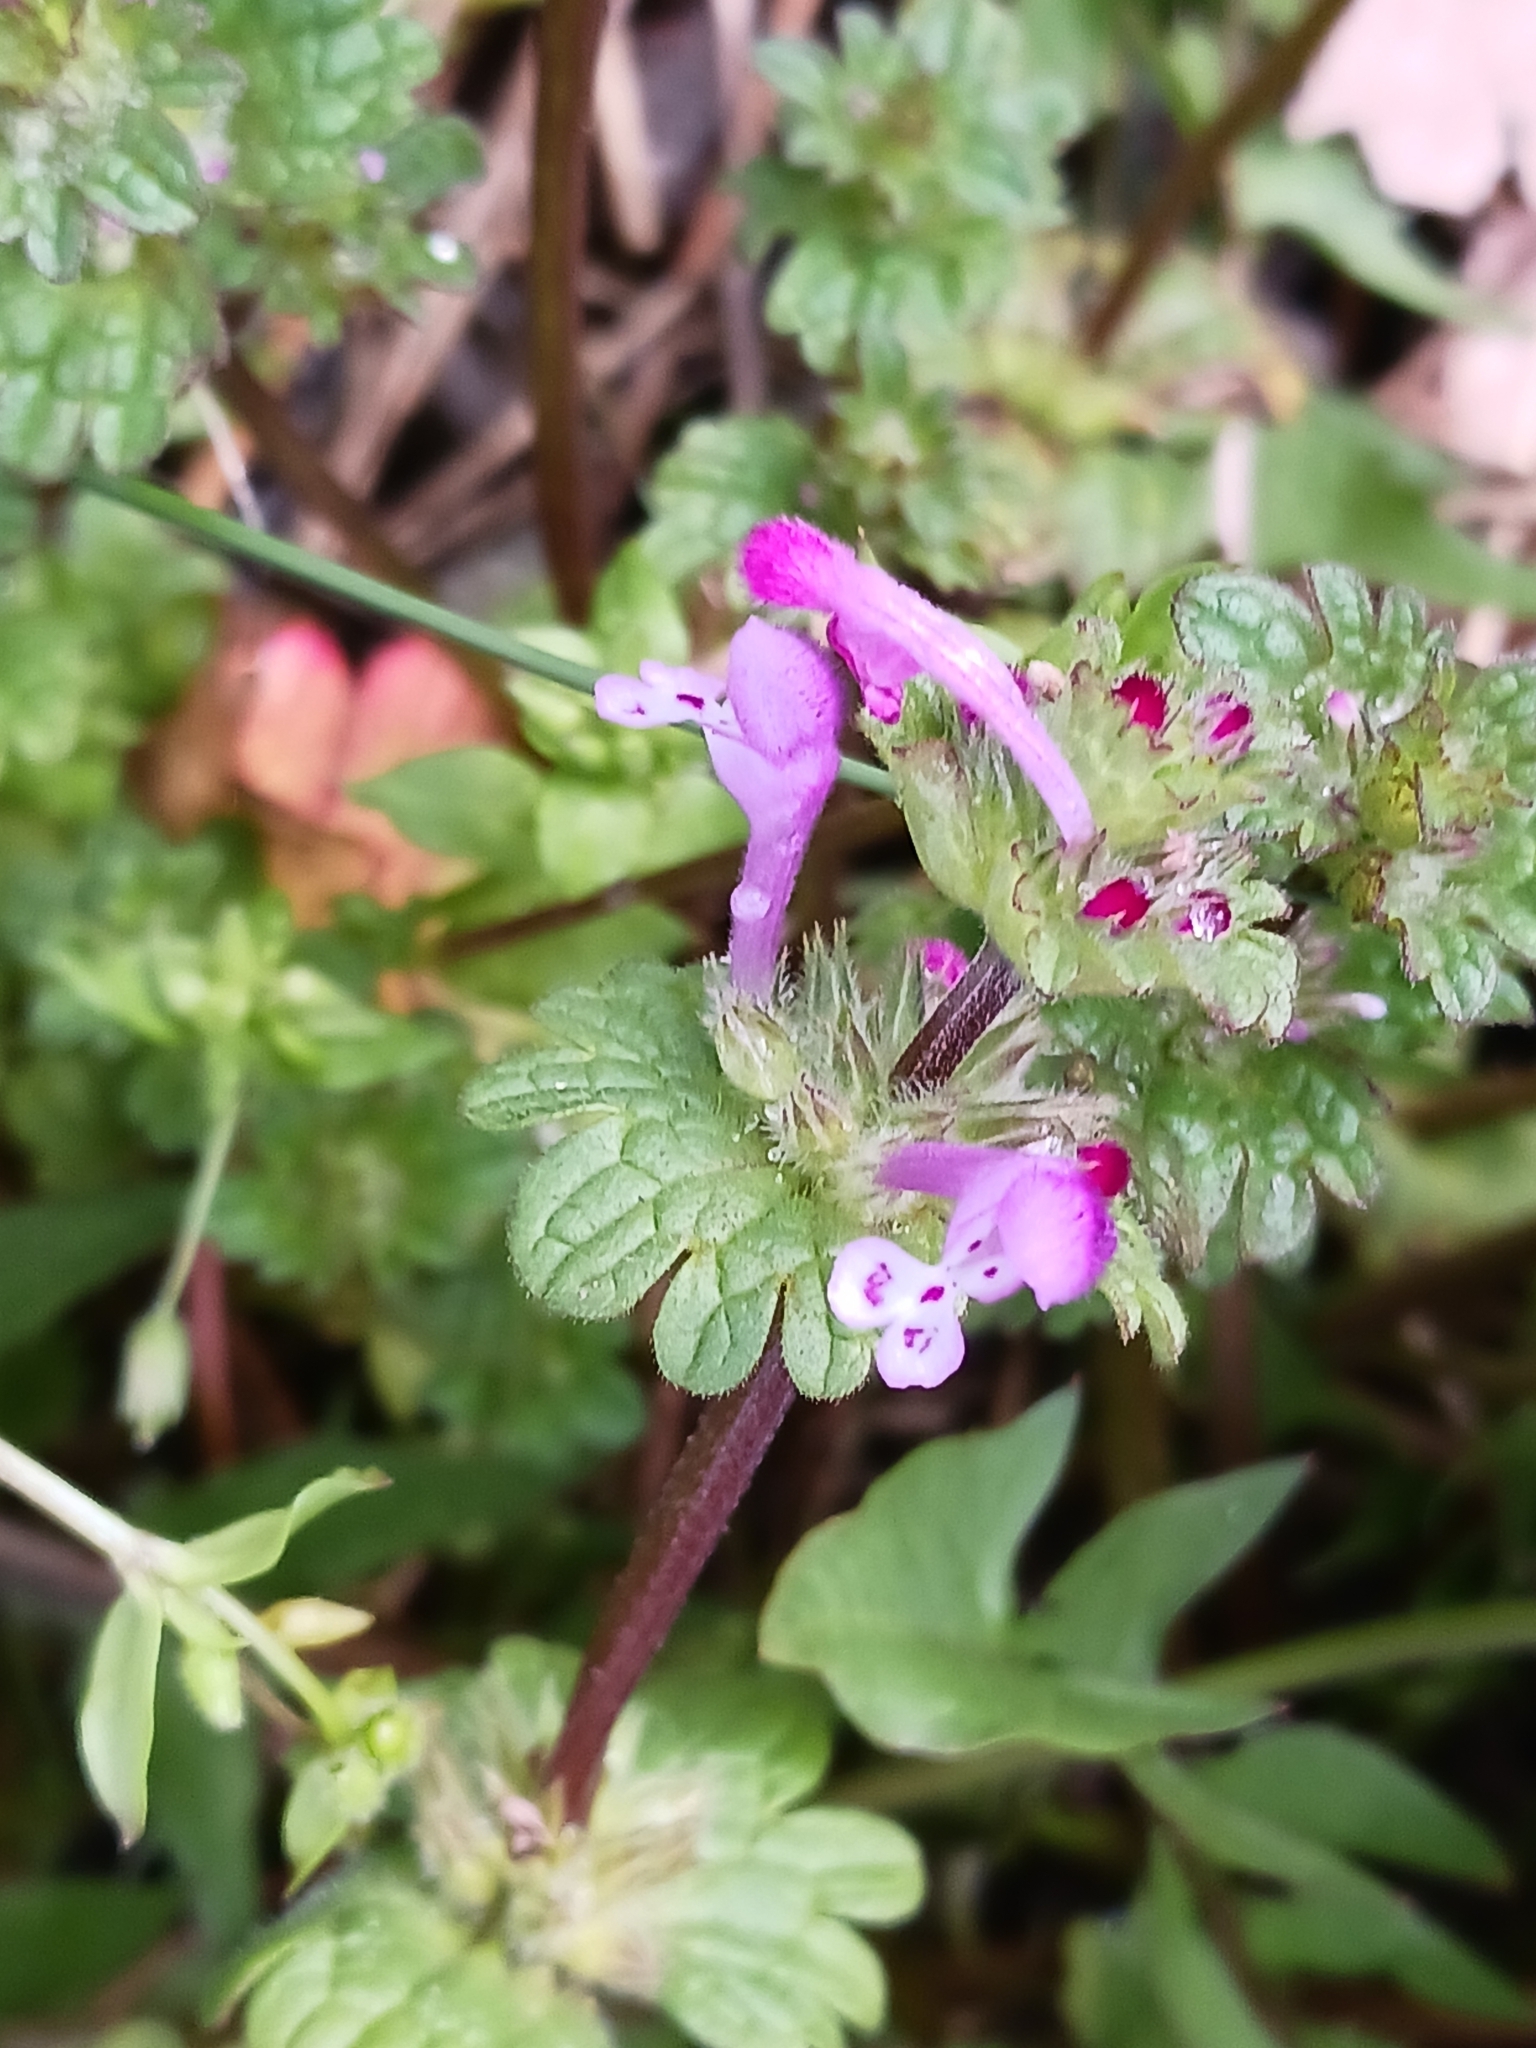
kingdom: Plantae
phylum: Tracheophyta
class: Magnoliopsida
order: Lamiales
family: Lamiaceae
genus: Lamium
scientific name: Lamium amplexicaule
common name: Henbit dead-nettle
